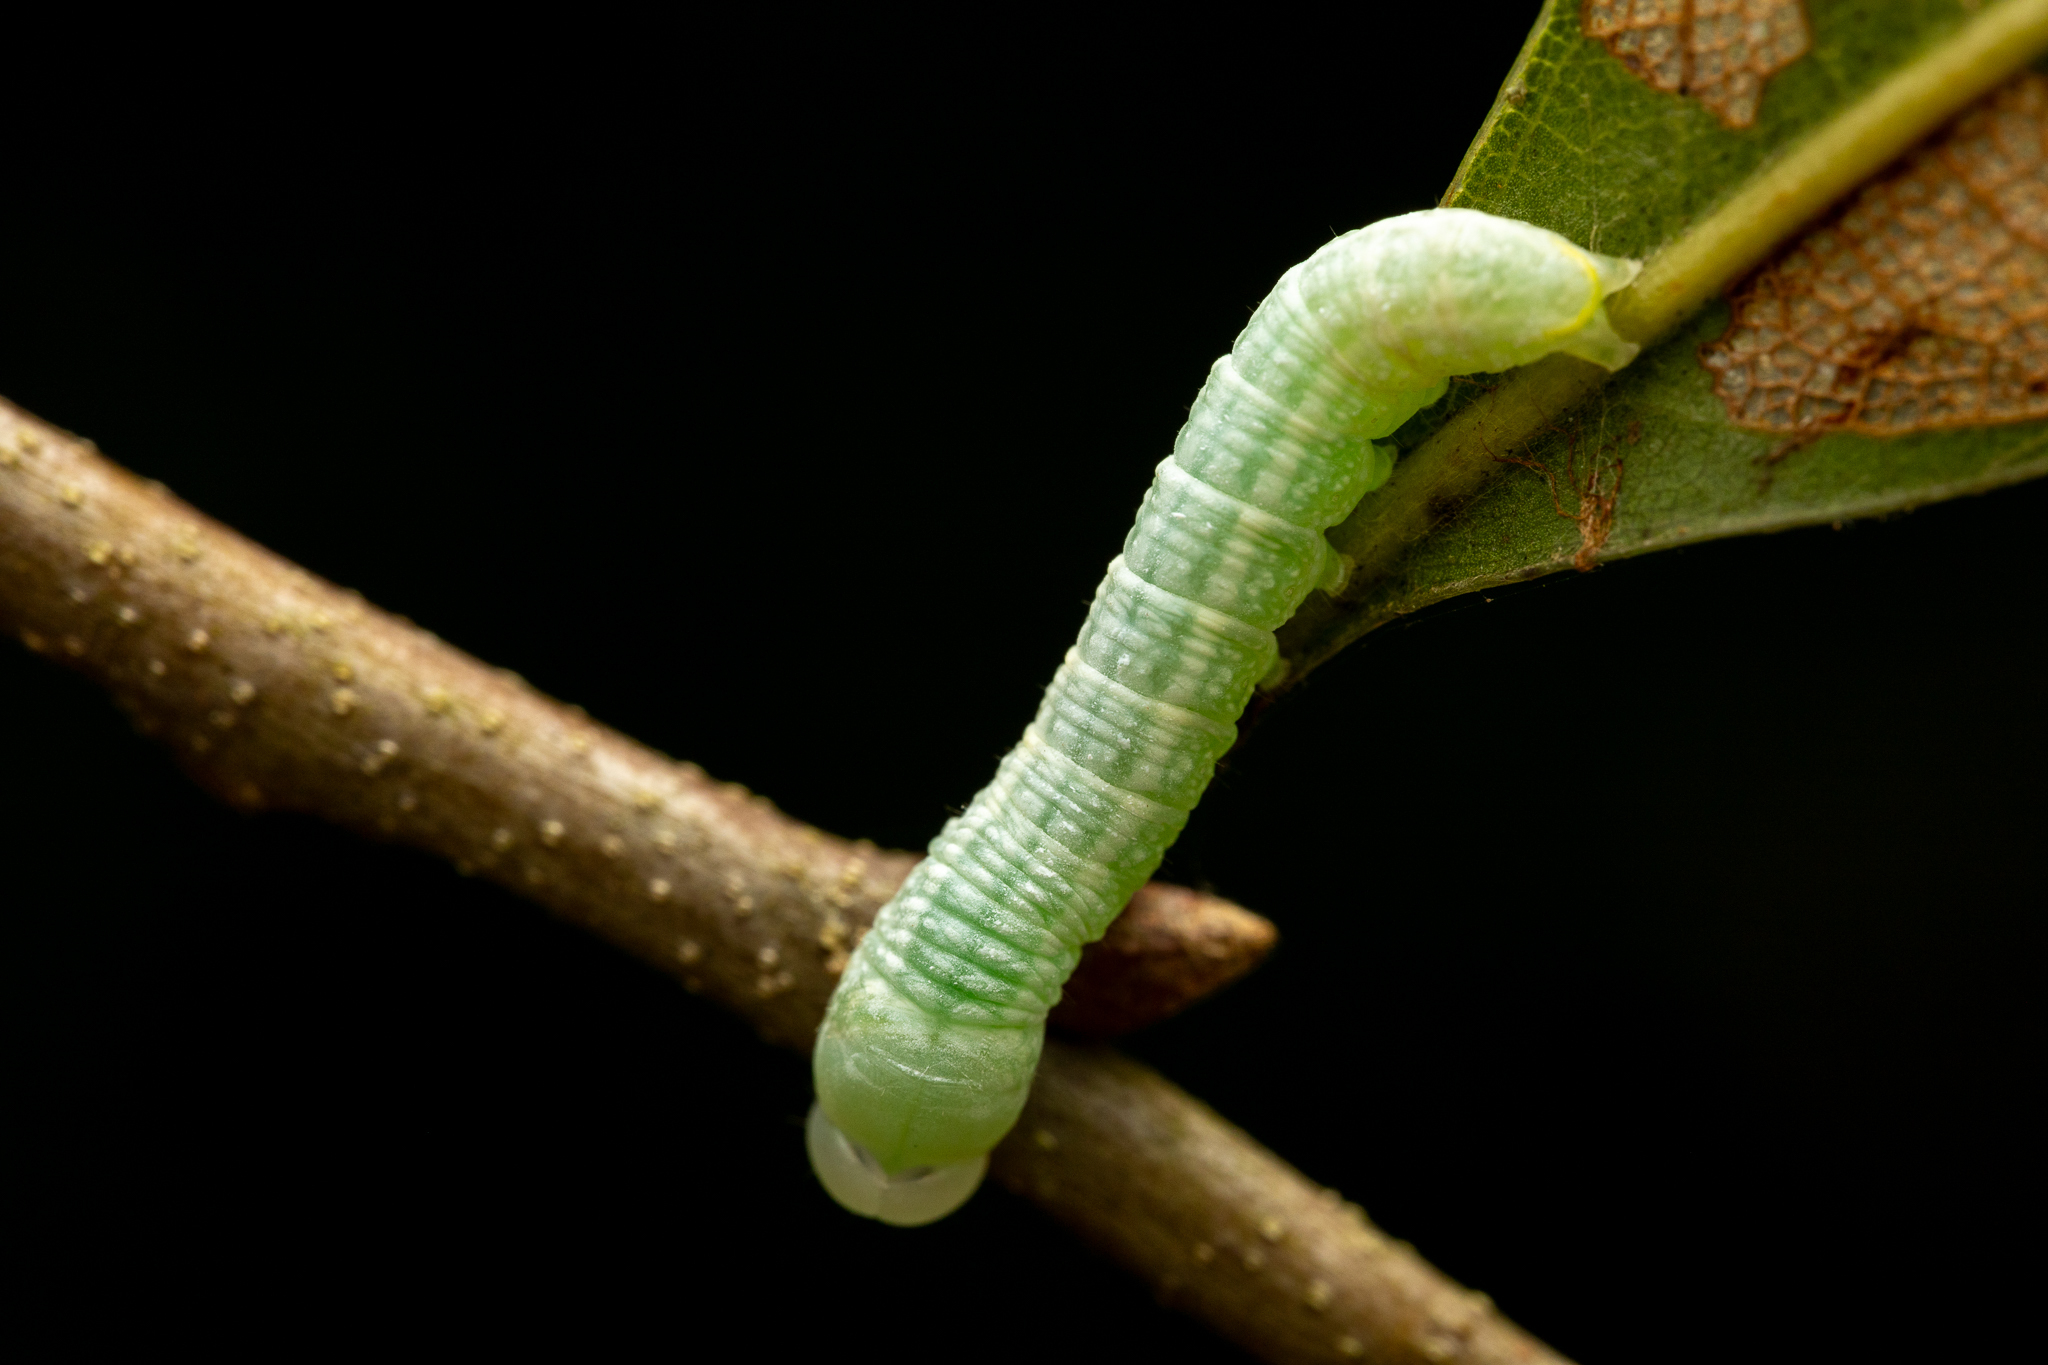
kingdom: Animalia
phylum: Arthropoda
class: Insecta
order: Lepidoptera
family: Notodontidae
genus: Nadata
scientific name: Nadata gibbosa
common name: White-dotted prominent
